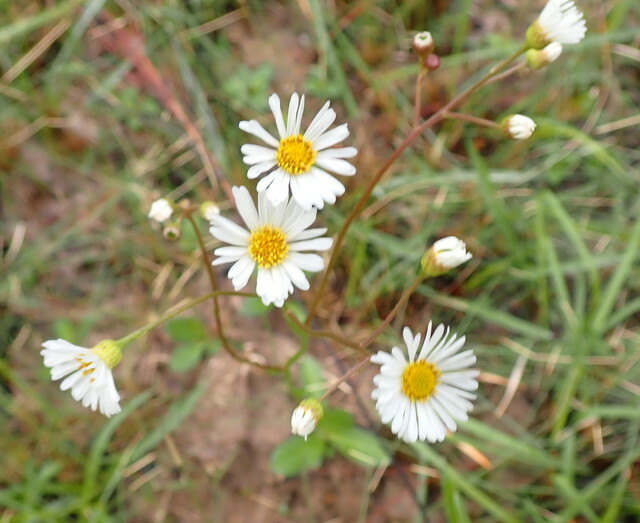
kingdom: Plantae
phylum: Tracheophyta
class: Magnoliopsida
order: Asterales
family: Asteraceae
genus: Erigeron
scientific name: Erigeron vernus
